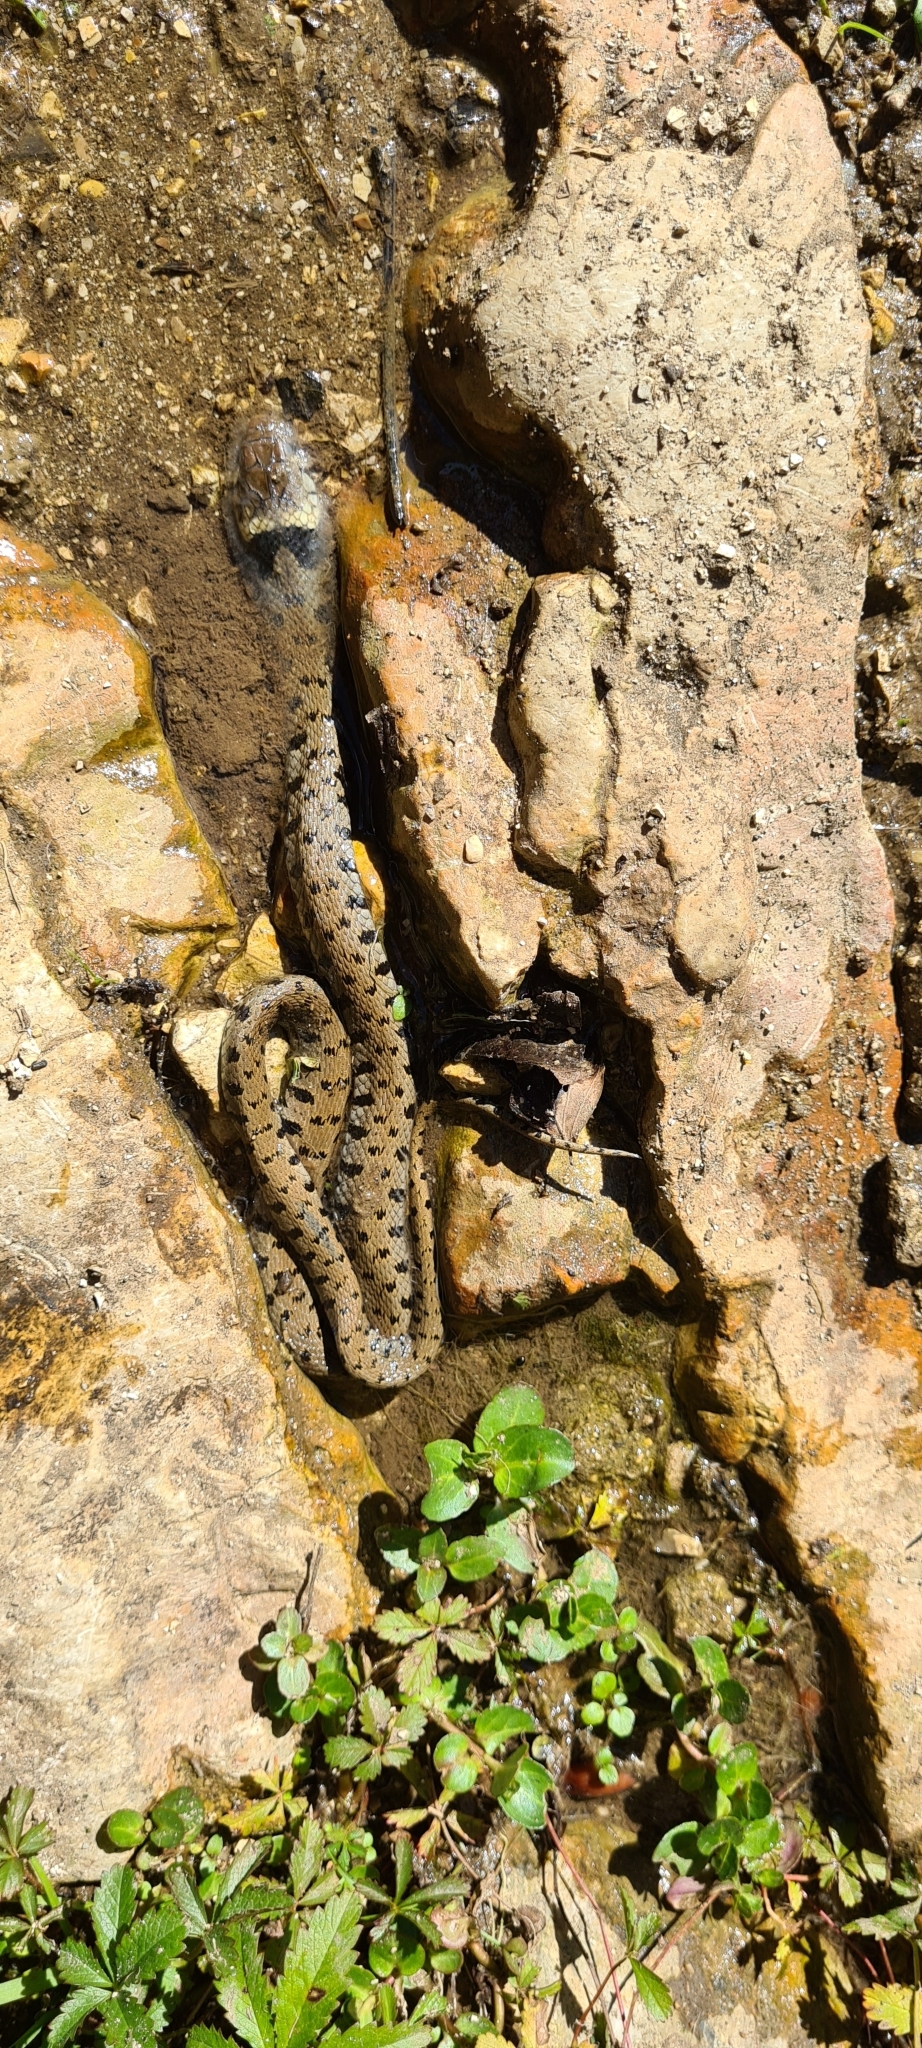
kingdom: Animalia
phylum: Chordata
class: Squamata
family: Colubridae
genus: Natrix
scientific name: Natrix helvetica
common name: Banded grass snake
